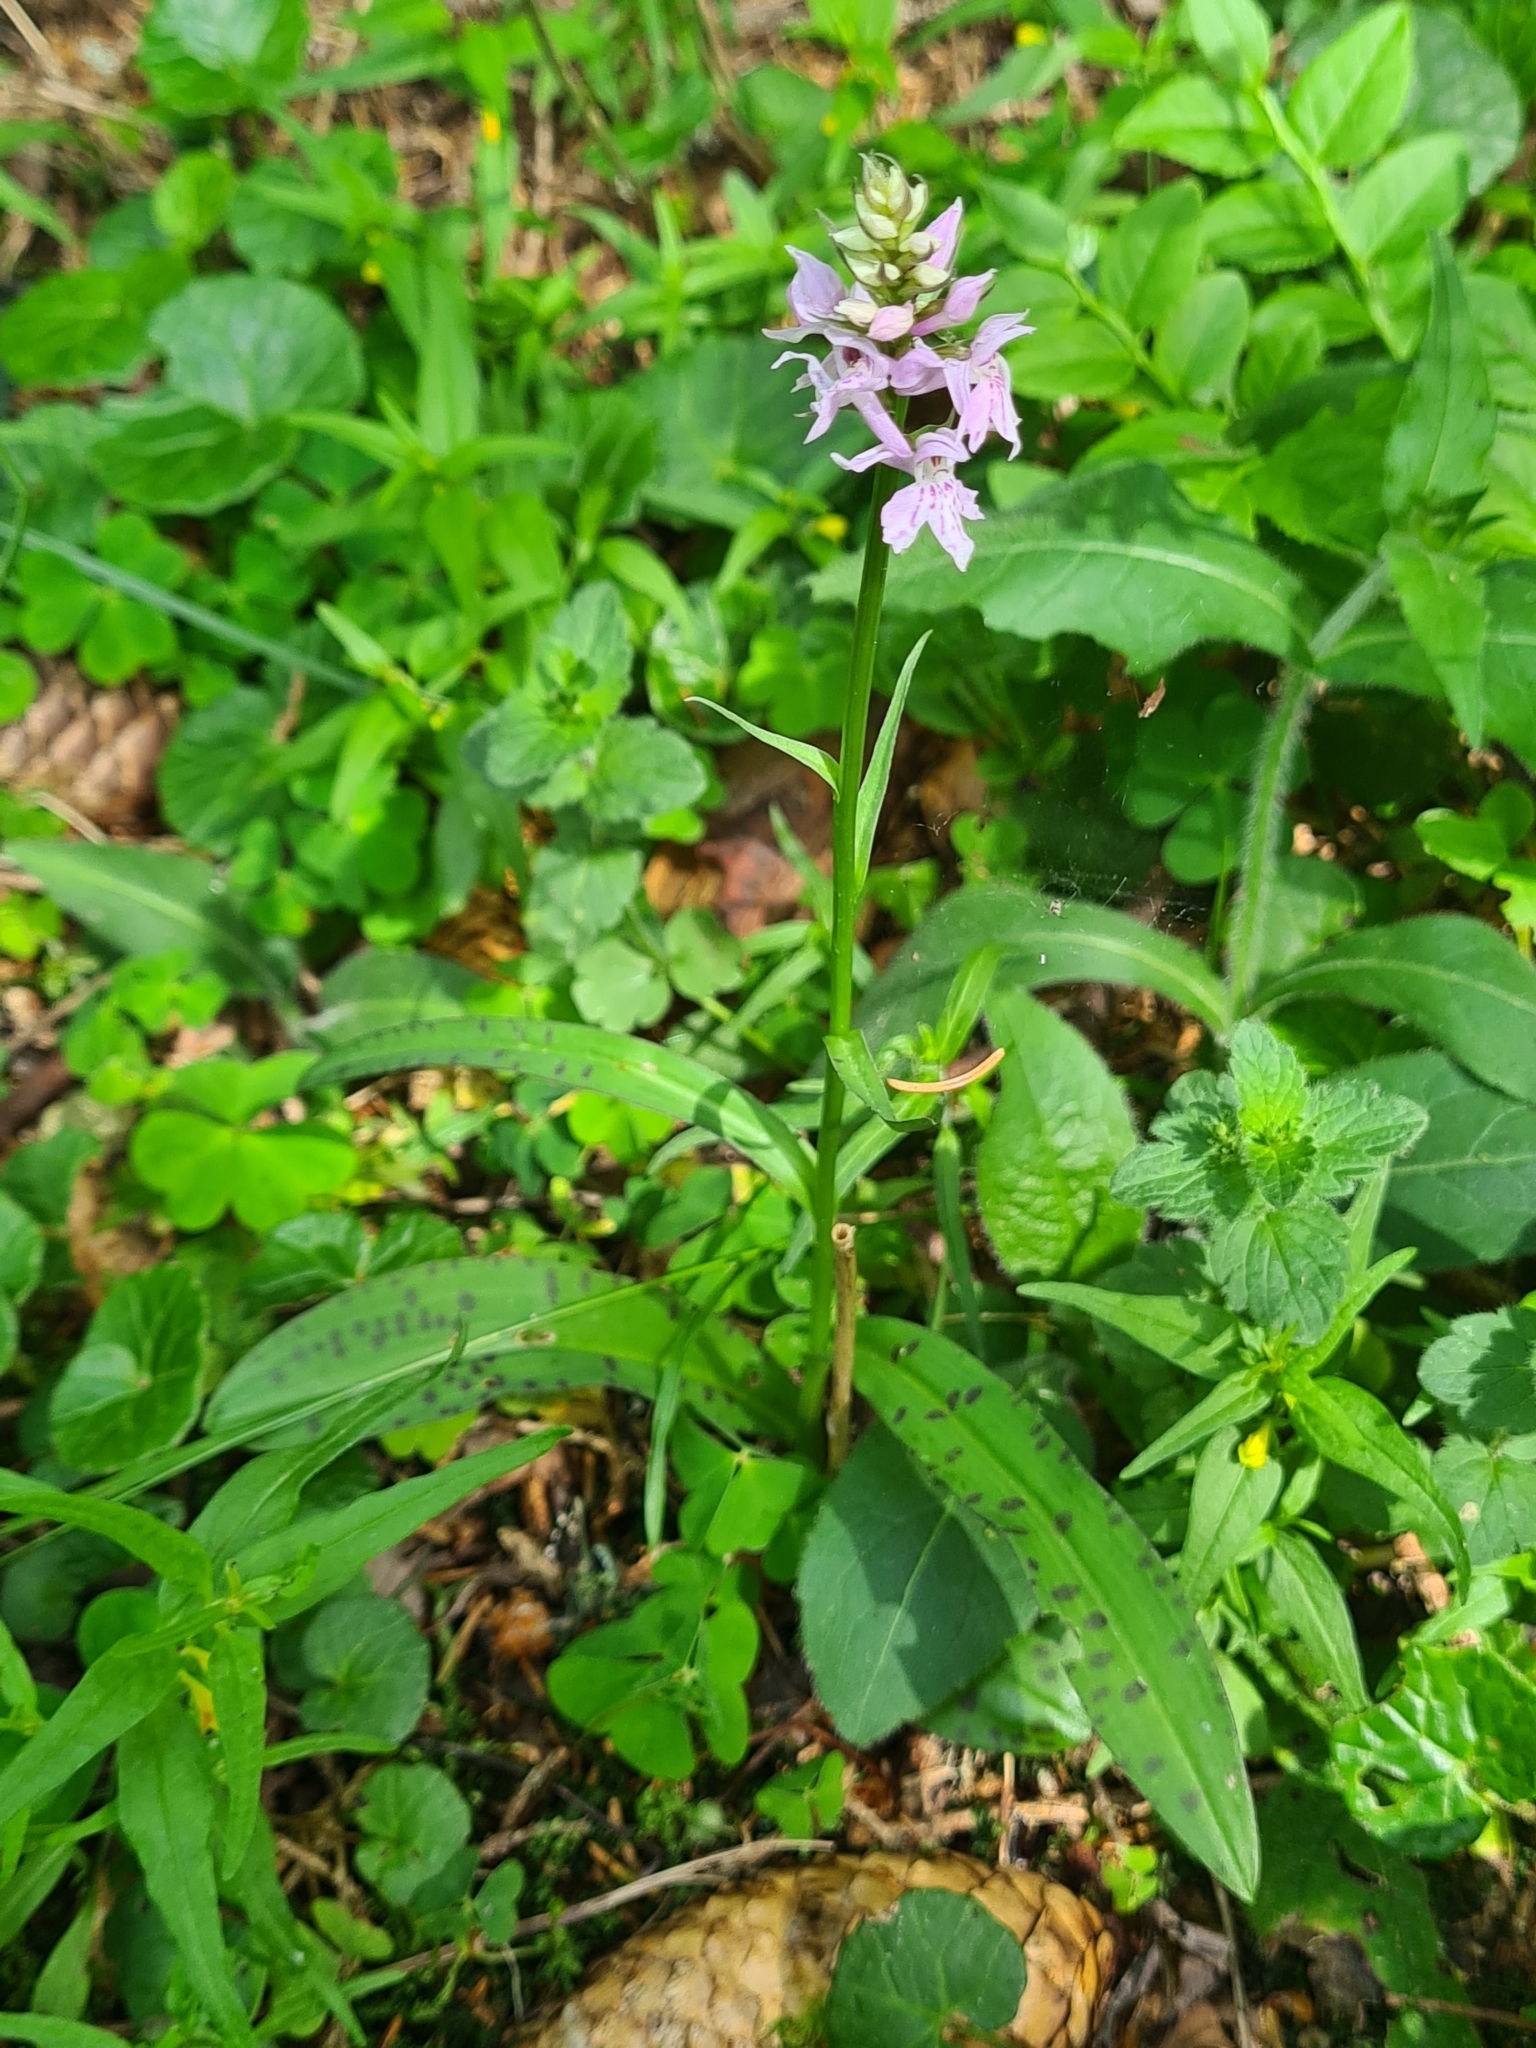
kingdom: Plantae
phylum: Tracheophyta
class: Liliopsida
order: Asparagales
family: Orchidaceae
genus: Dactylorhiza
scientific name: Dactylorhiza maculata
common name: Heath spotted-orchid
